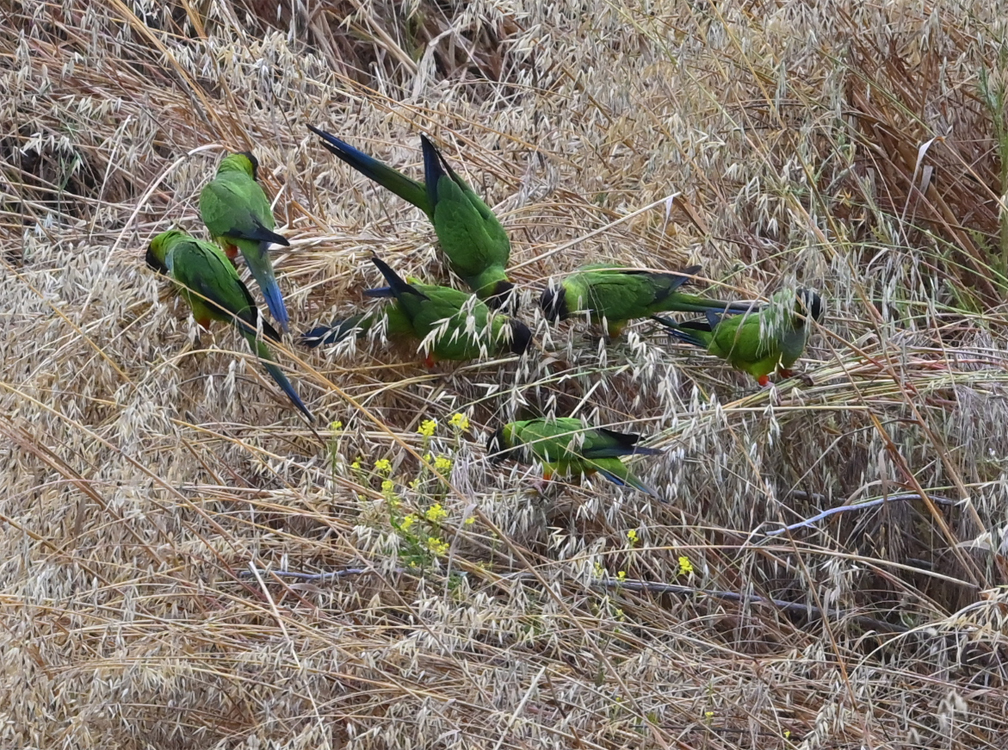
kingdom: Animalia
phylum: Chordata
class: Aves
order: Psittaciformes
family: Psittacidae
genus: Nandayus
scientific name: Nandayus nenday
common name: Nanday parakeet
